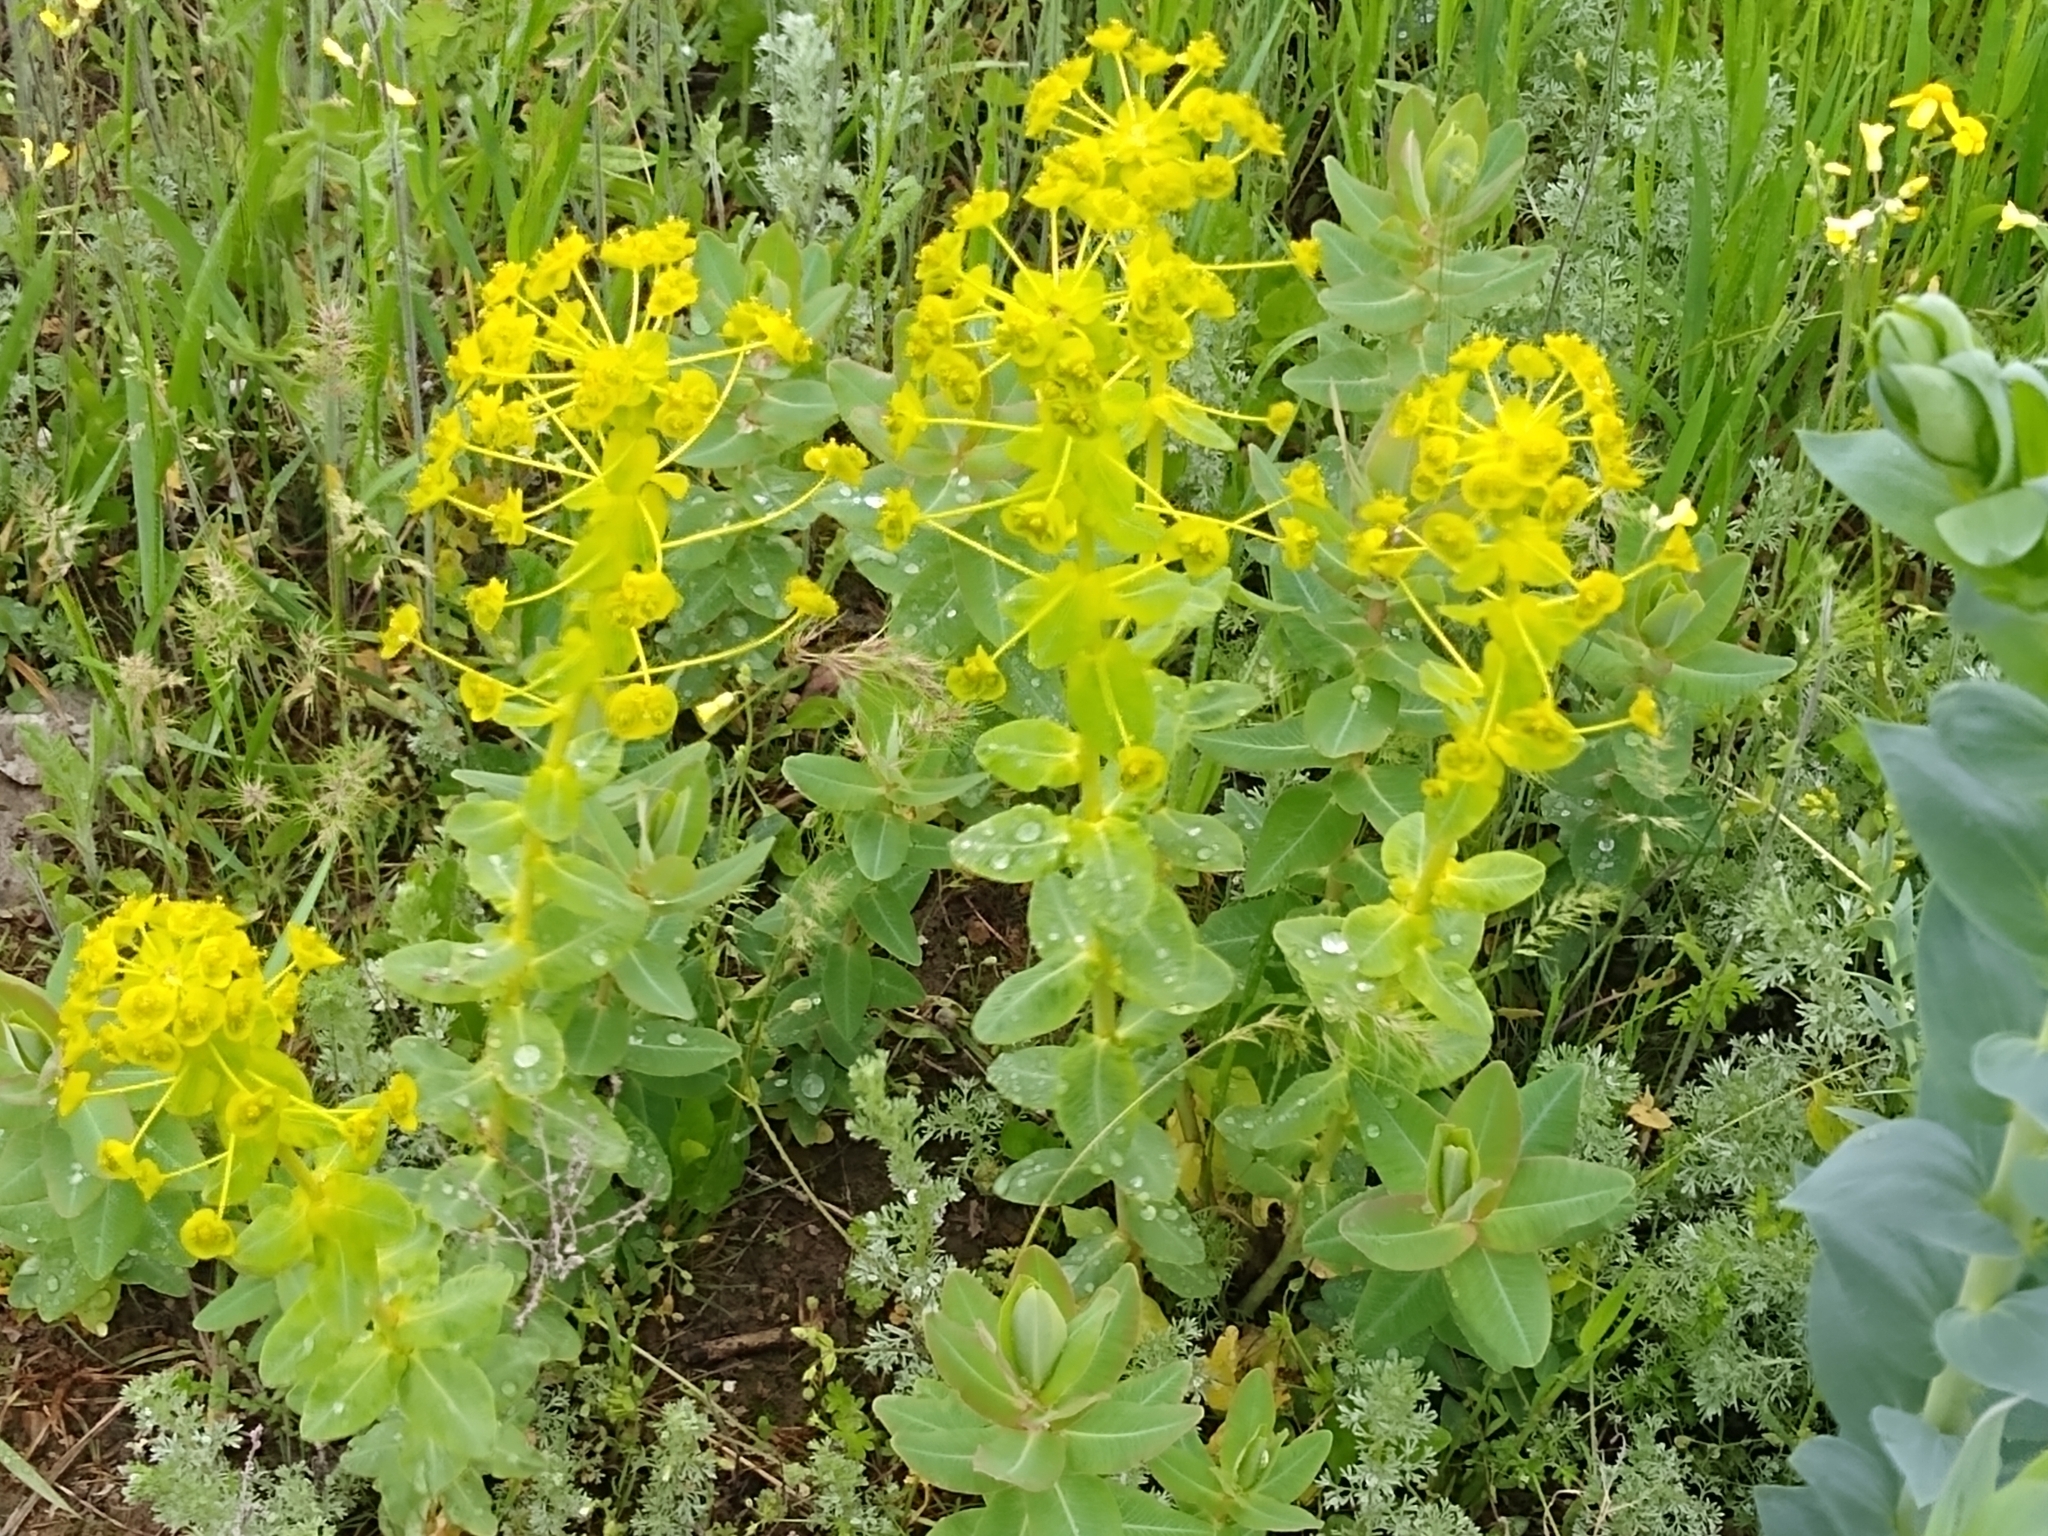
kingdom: Plantae
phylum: Tracheophyta
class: Magnoliopsida
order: Malpighiales
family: Euphorbiaceae
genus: Euphorbia
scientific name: Euphorbia agraria
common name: Urban spurge
